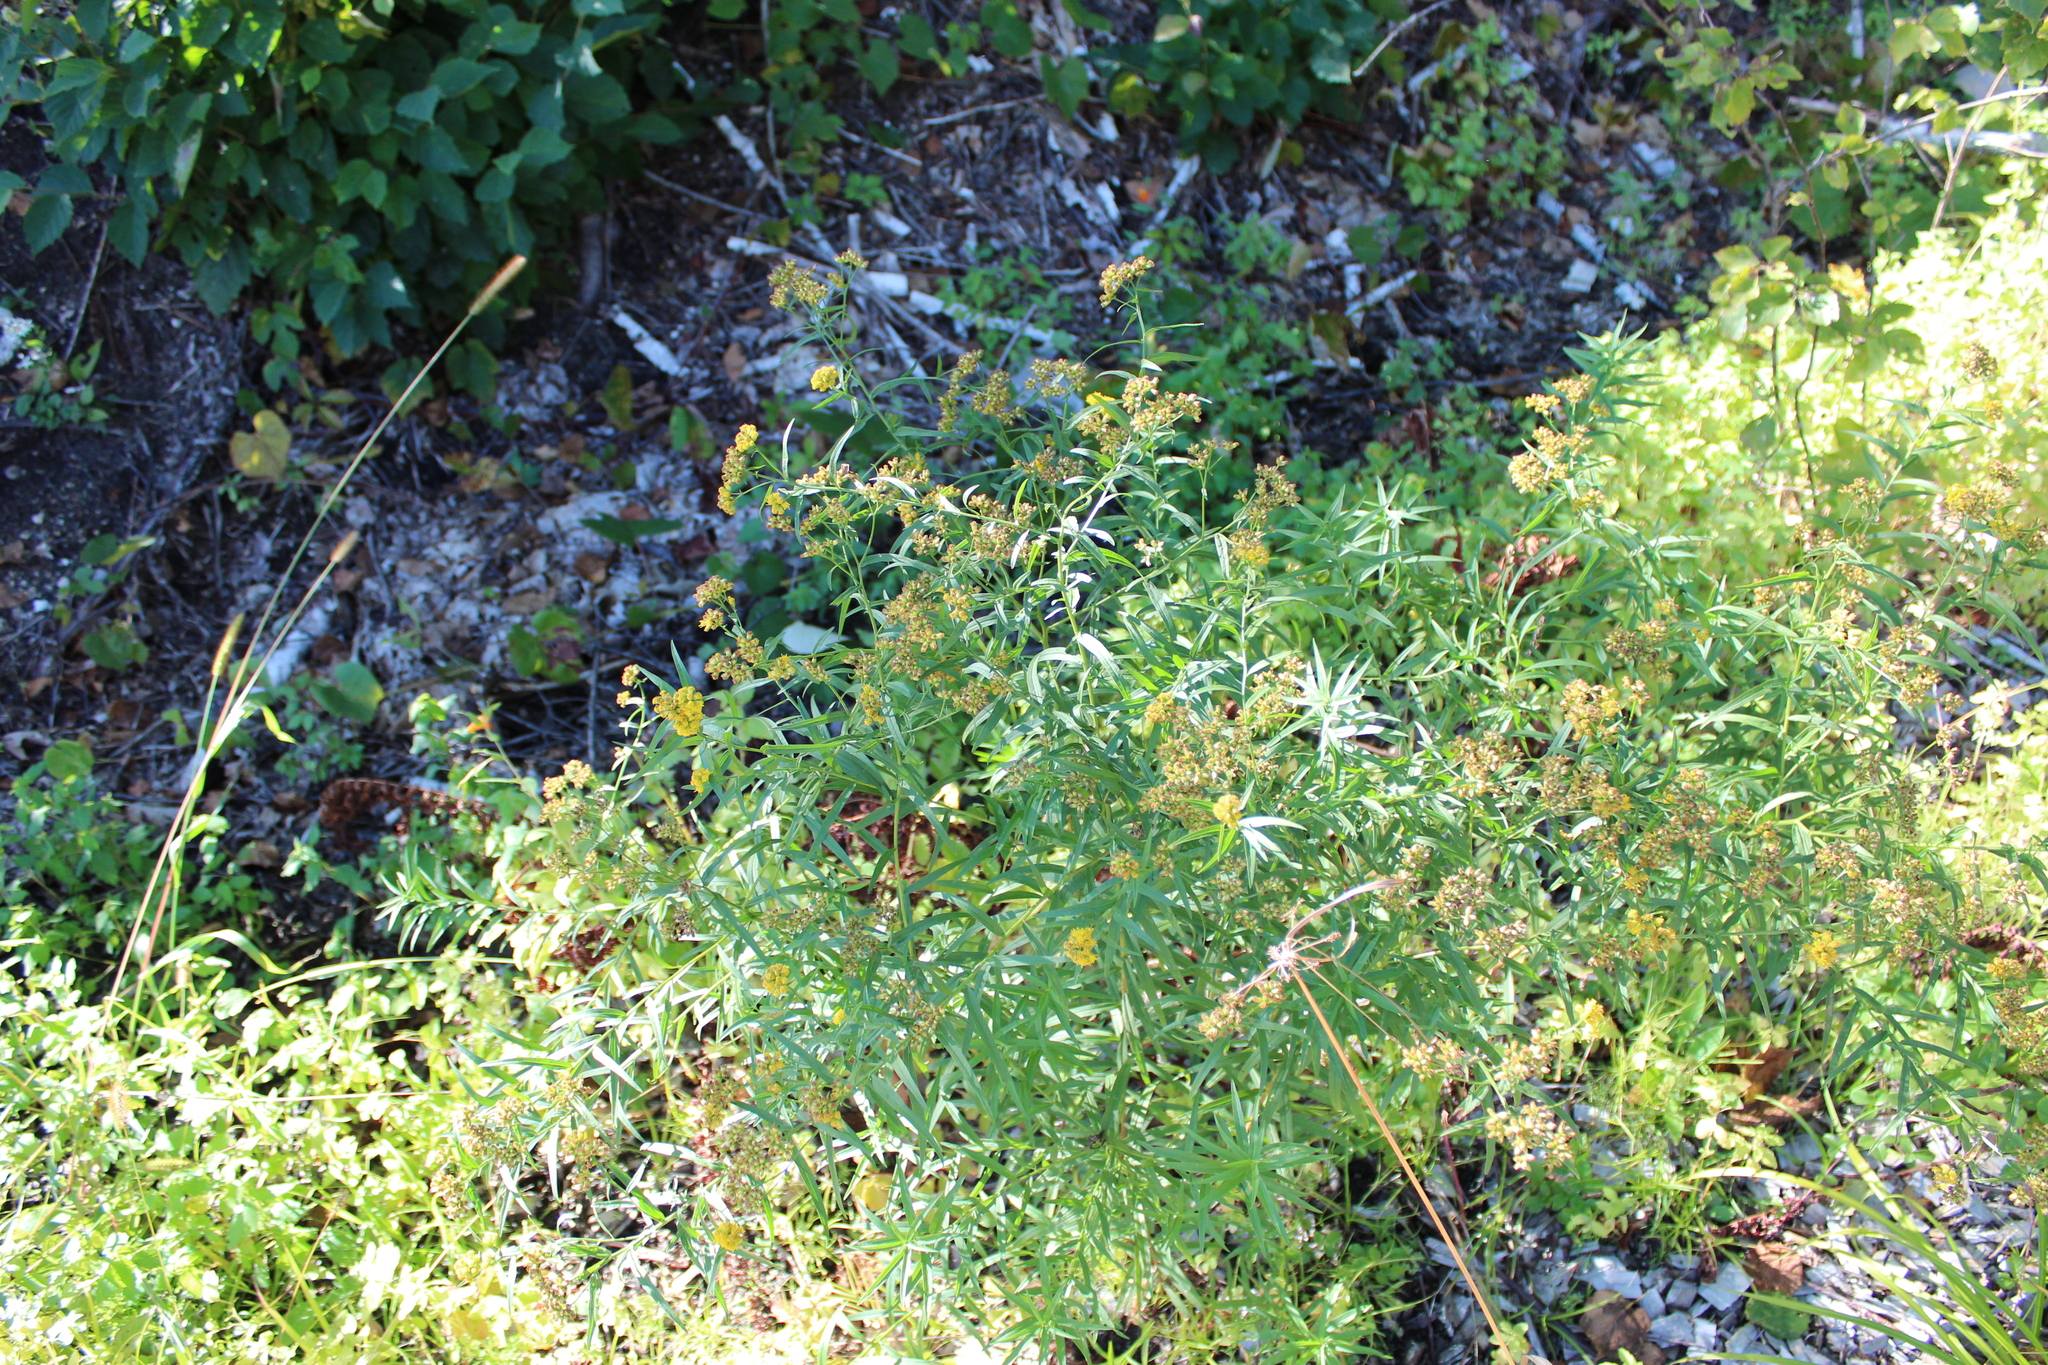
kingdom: Plantae
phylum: Tracheophyta
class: Magnoliopsida
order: Asterales
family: Asteraceae
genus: Euthamia
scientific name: Euthamia graminifolia
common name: Common goldentop
